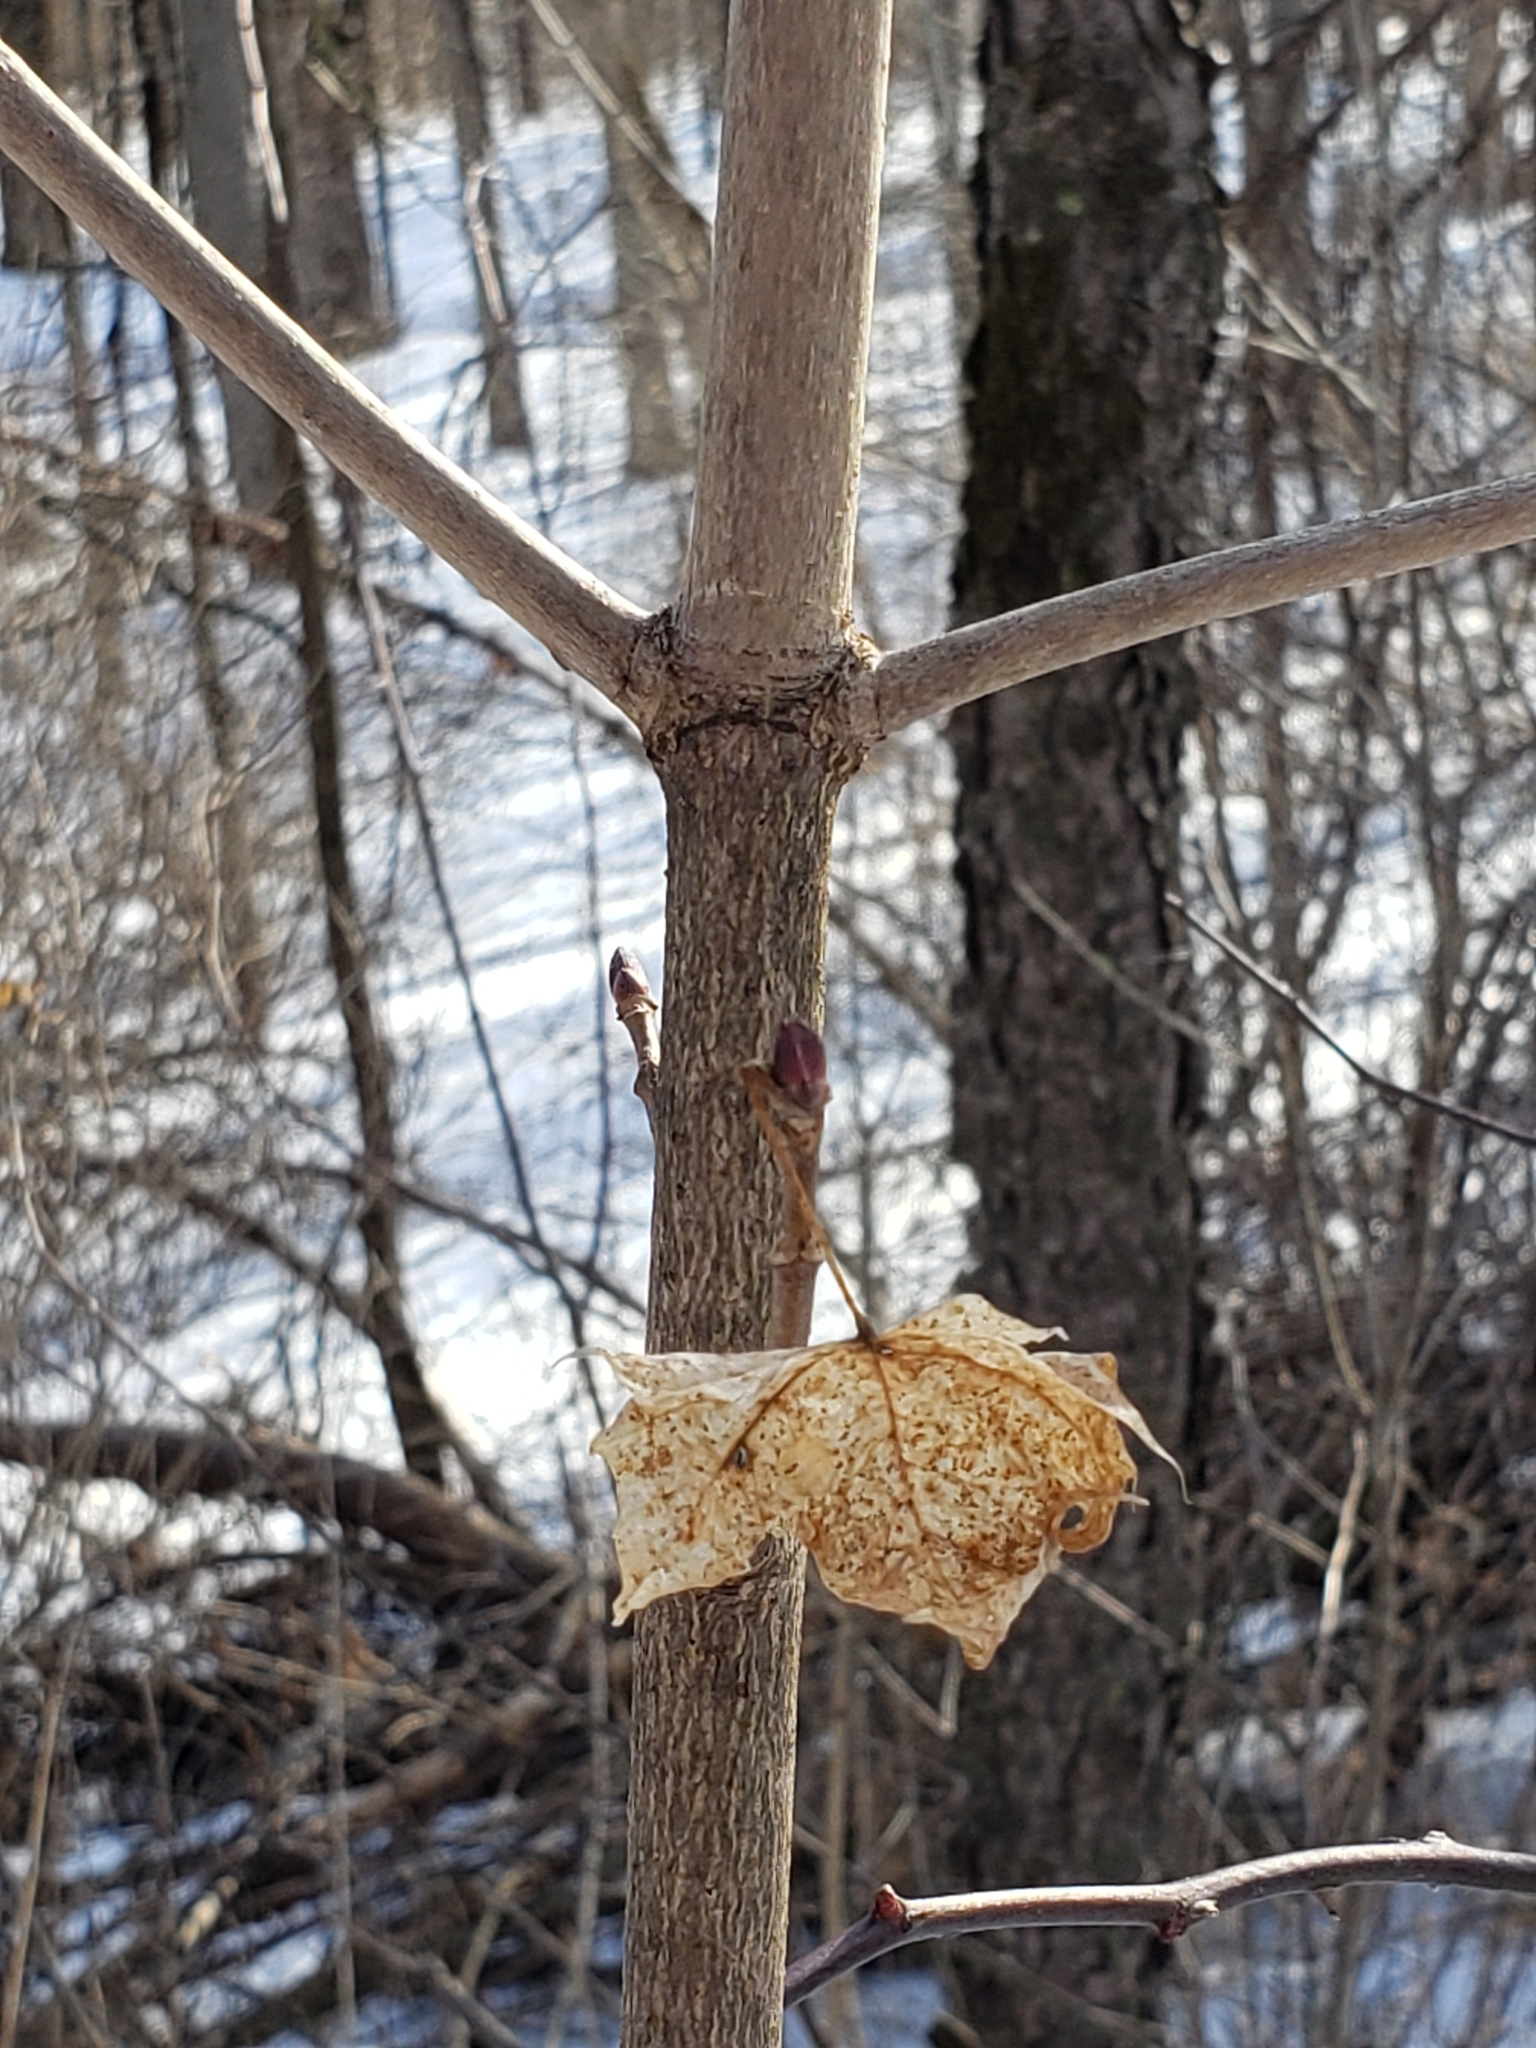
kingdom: Plantae
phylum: Tracheophyta
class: Magnoliopsida
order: Sapindales
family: Sapindaceae
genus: Acer
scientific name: Acer platanoides
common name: Norway maple
